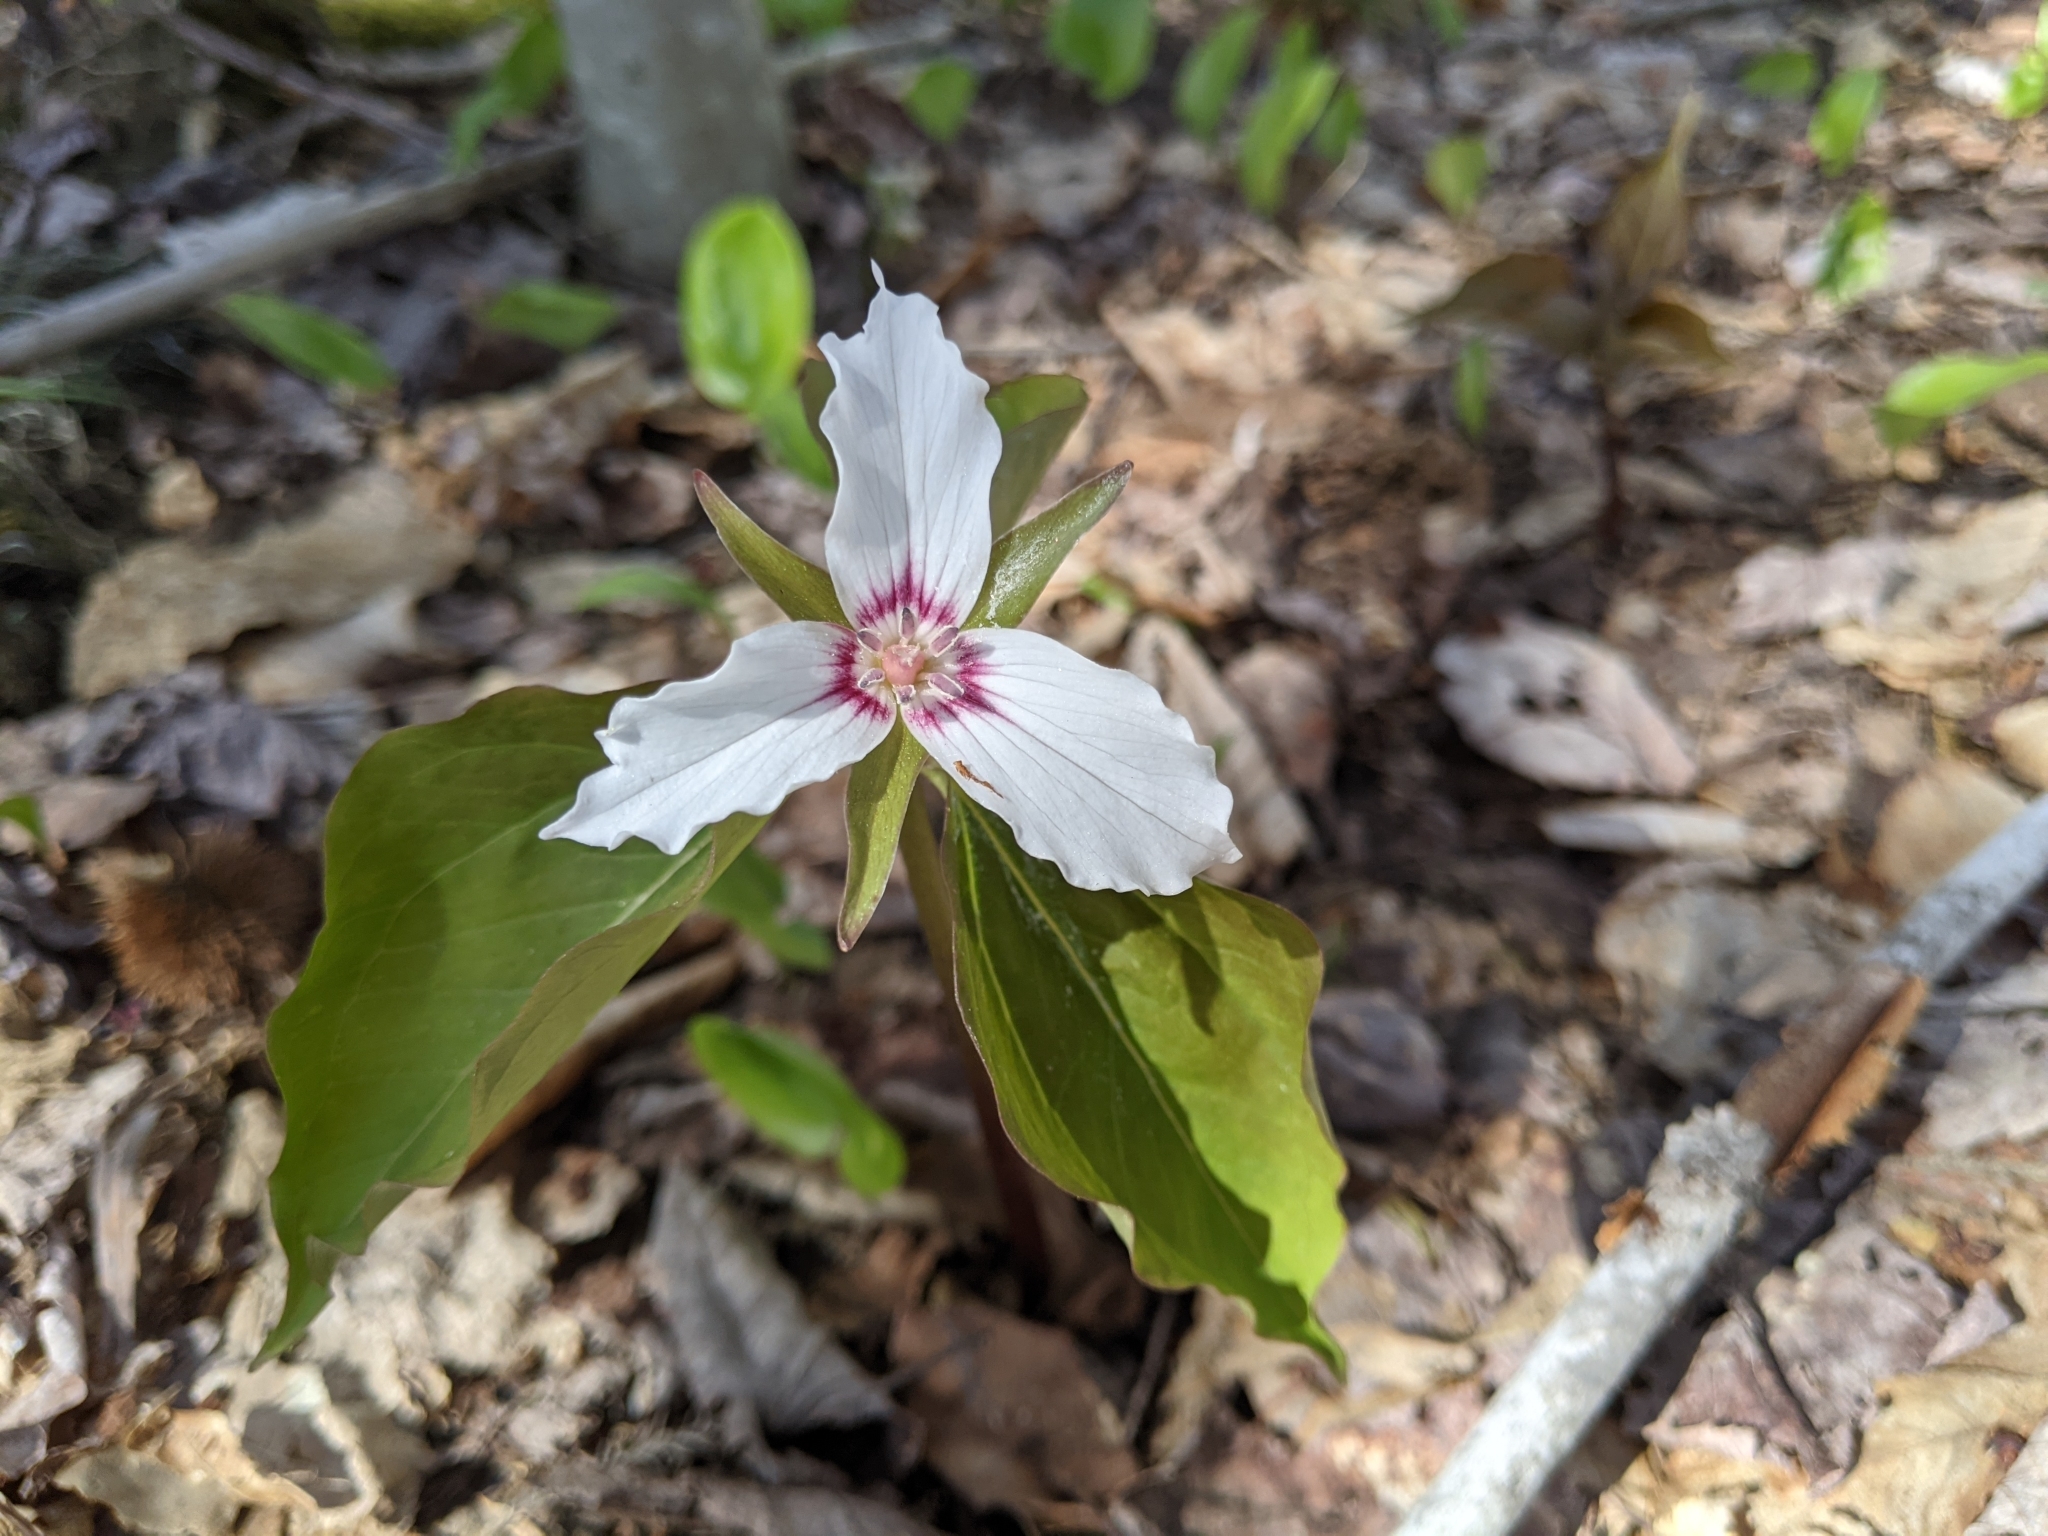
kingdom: Plantae
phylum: Tracheophyta
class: Liliopsida
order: Liliales
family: Melanthiaceae
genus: Trillium
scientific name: Trillium undulatum
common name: Paint trillium
